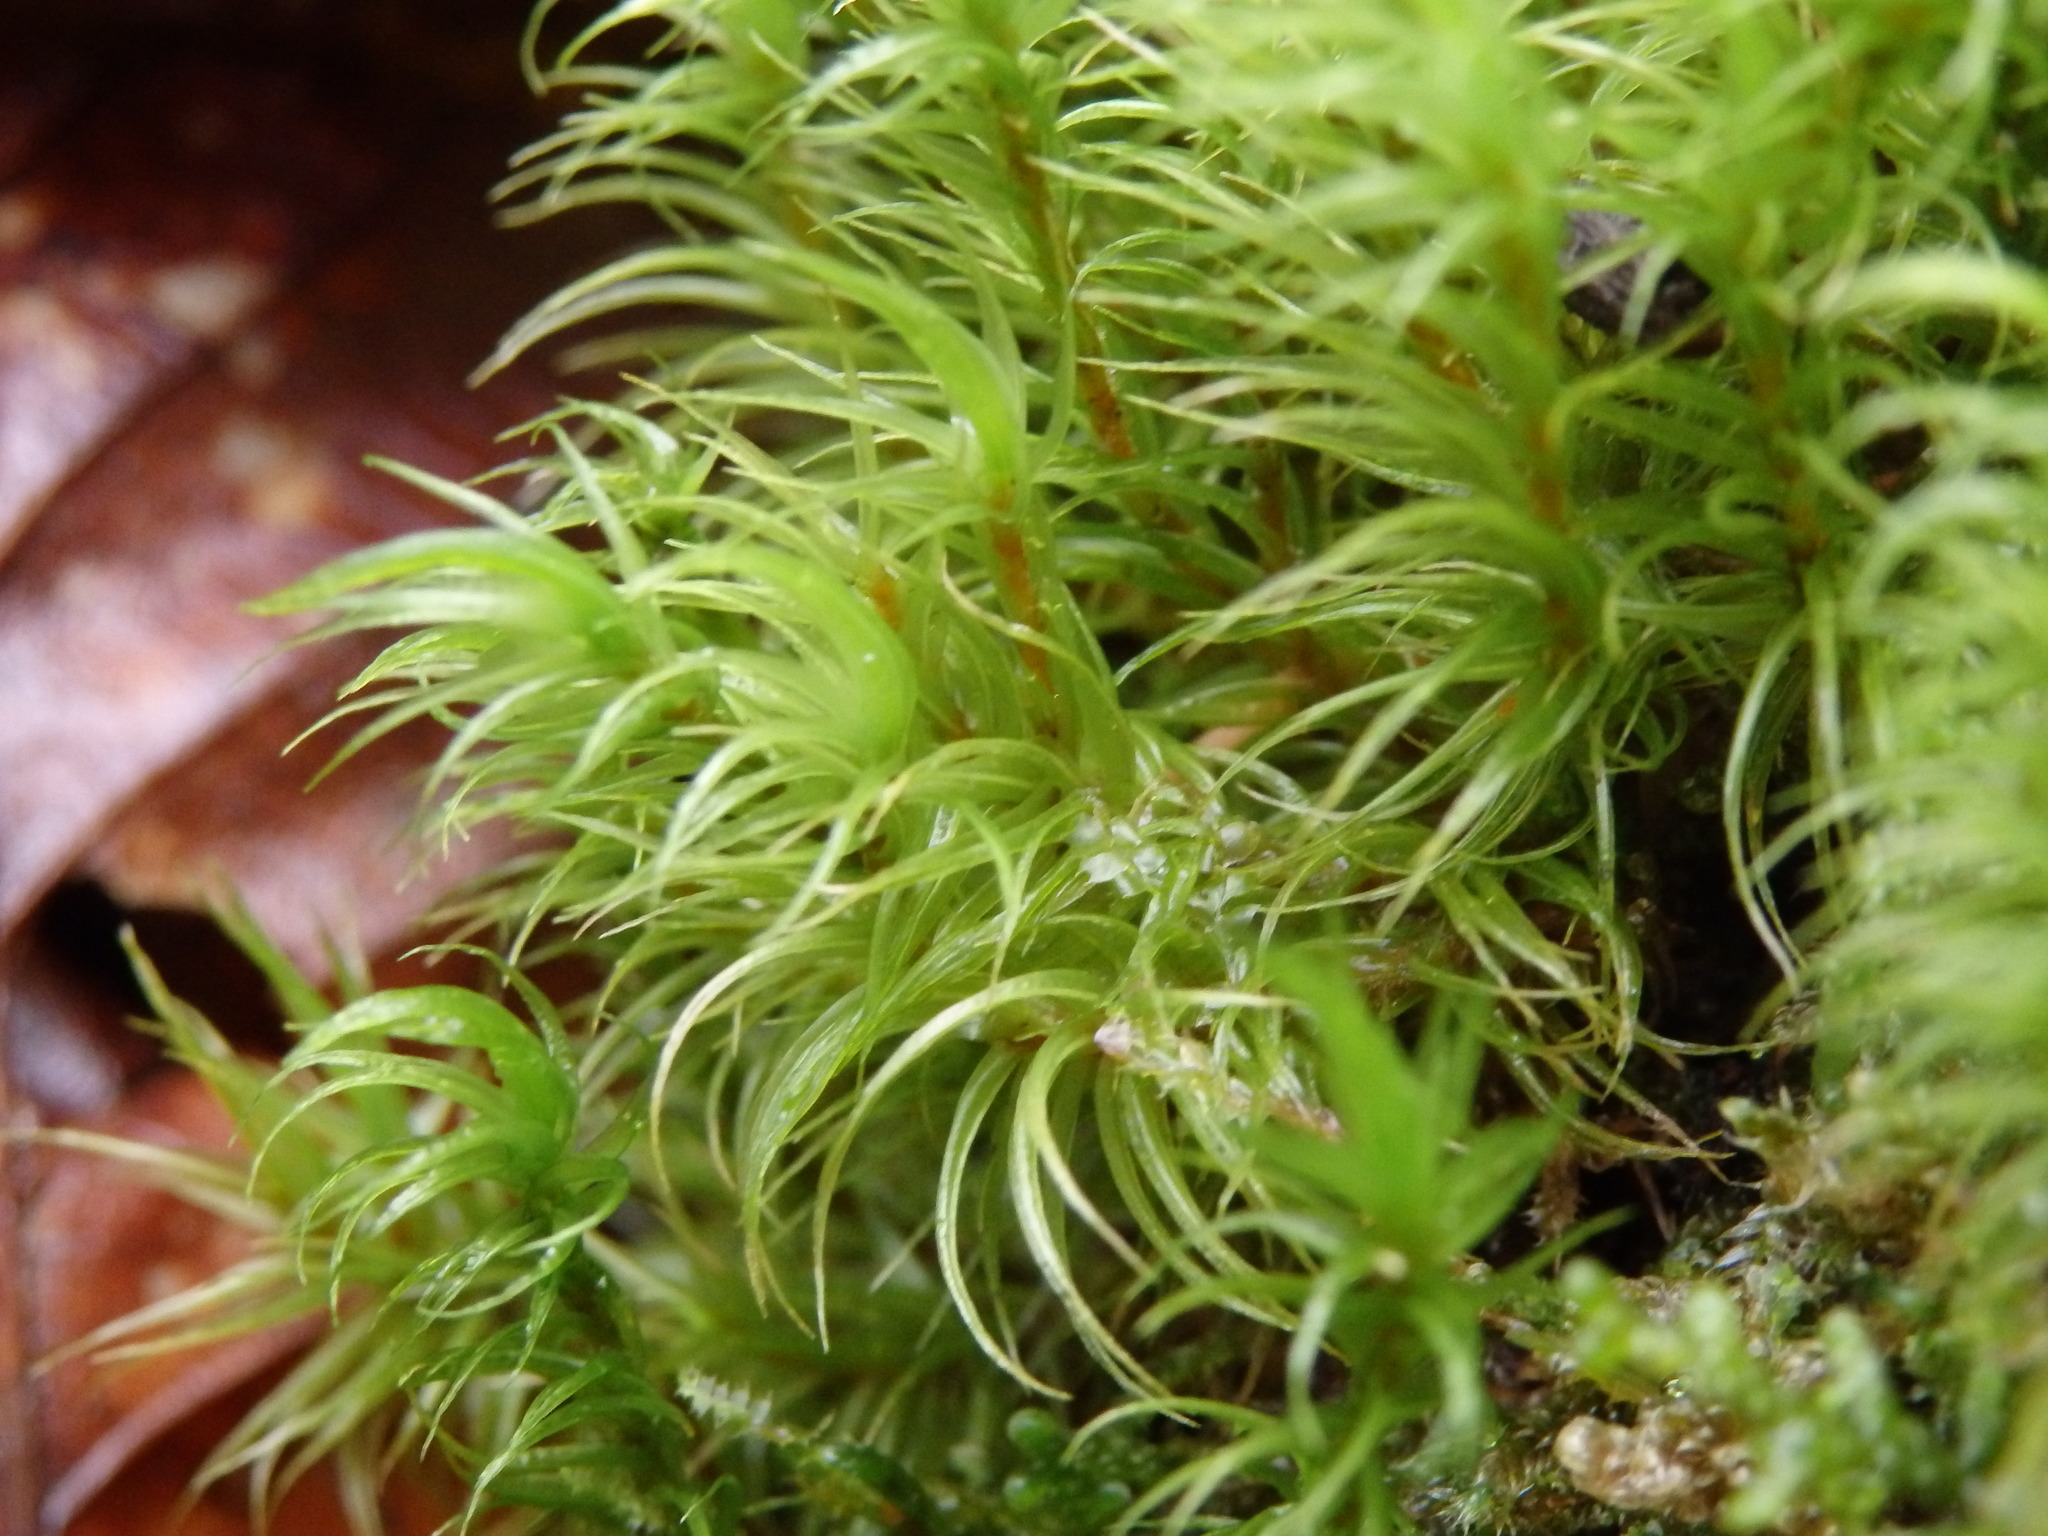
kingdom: Plantae
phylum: Bryophyta
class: Bryopsida
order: Dicranales
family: Dicranaceae
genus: Dicranum
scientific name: Dicranum scoparium
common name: Broom fork-moss
